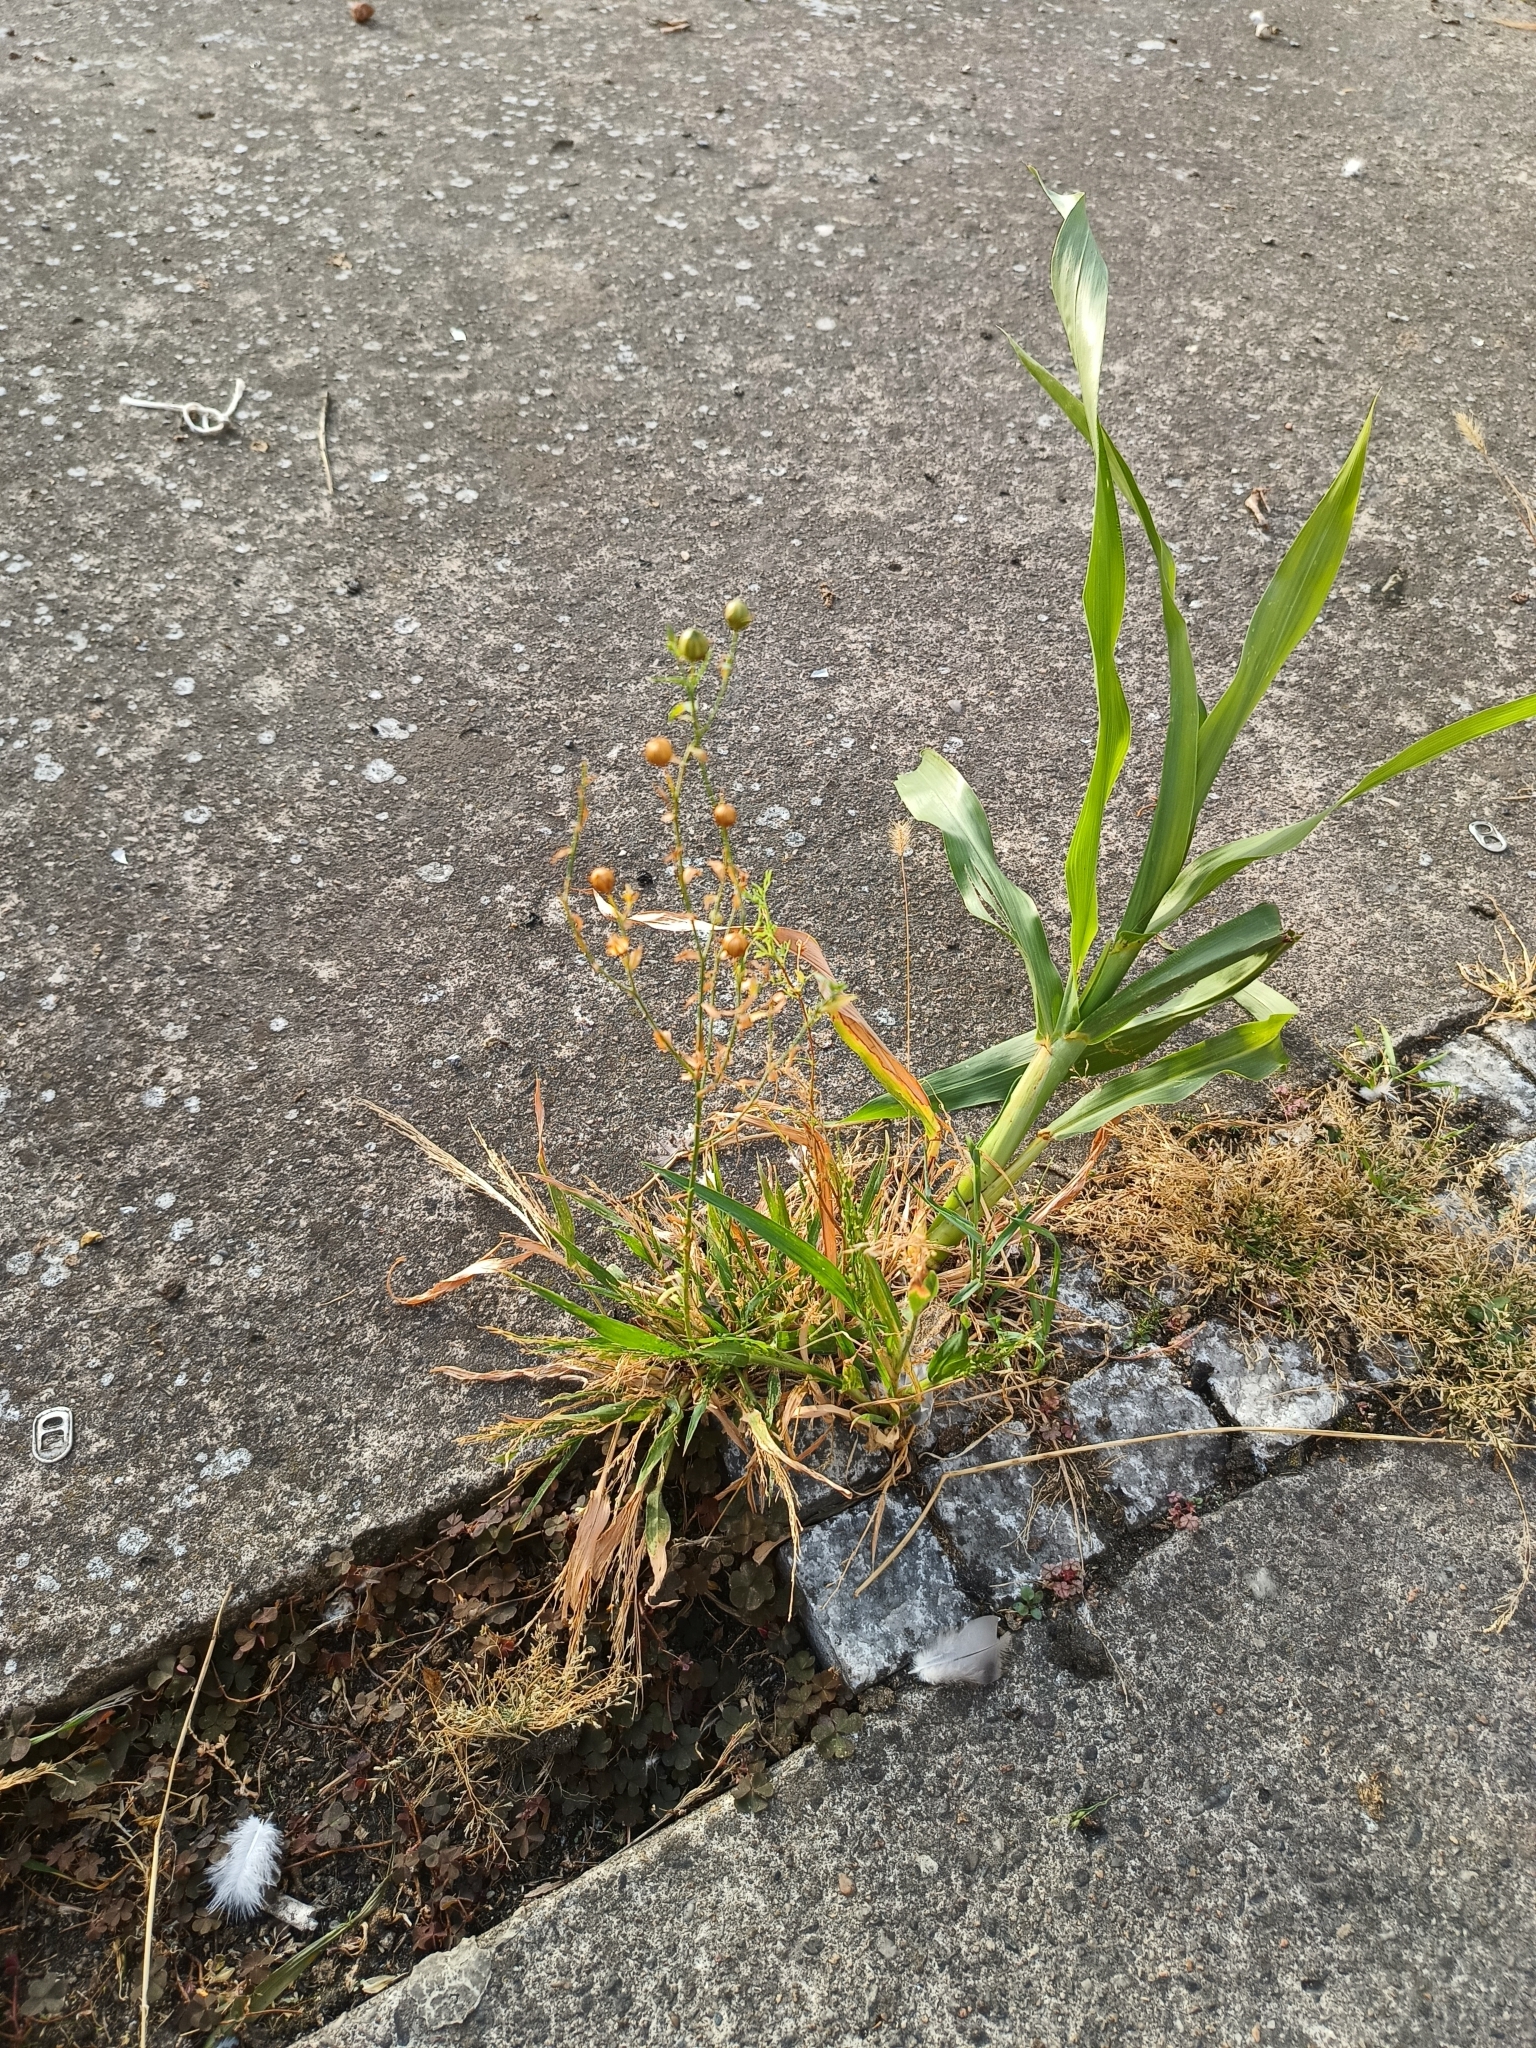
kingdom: Plantae
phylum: Tracheophyta
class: Magnoliopsida
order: Malpighiales
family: Linaceae
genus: Linum
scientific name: Linum usitatissimum
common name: Flax
